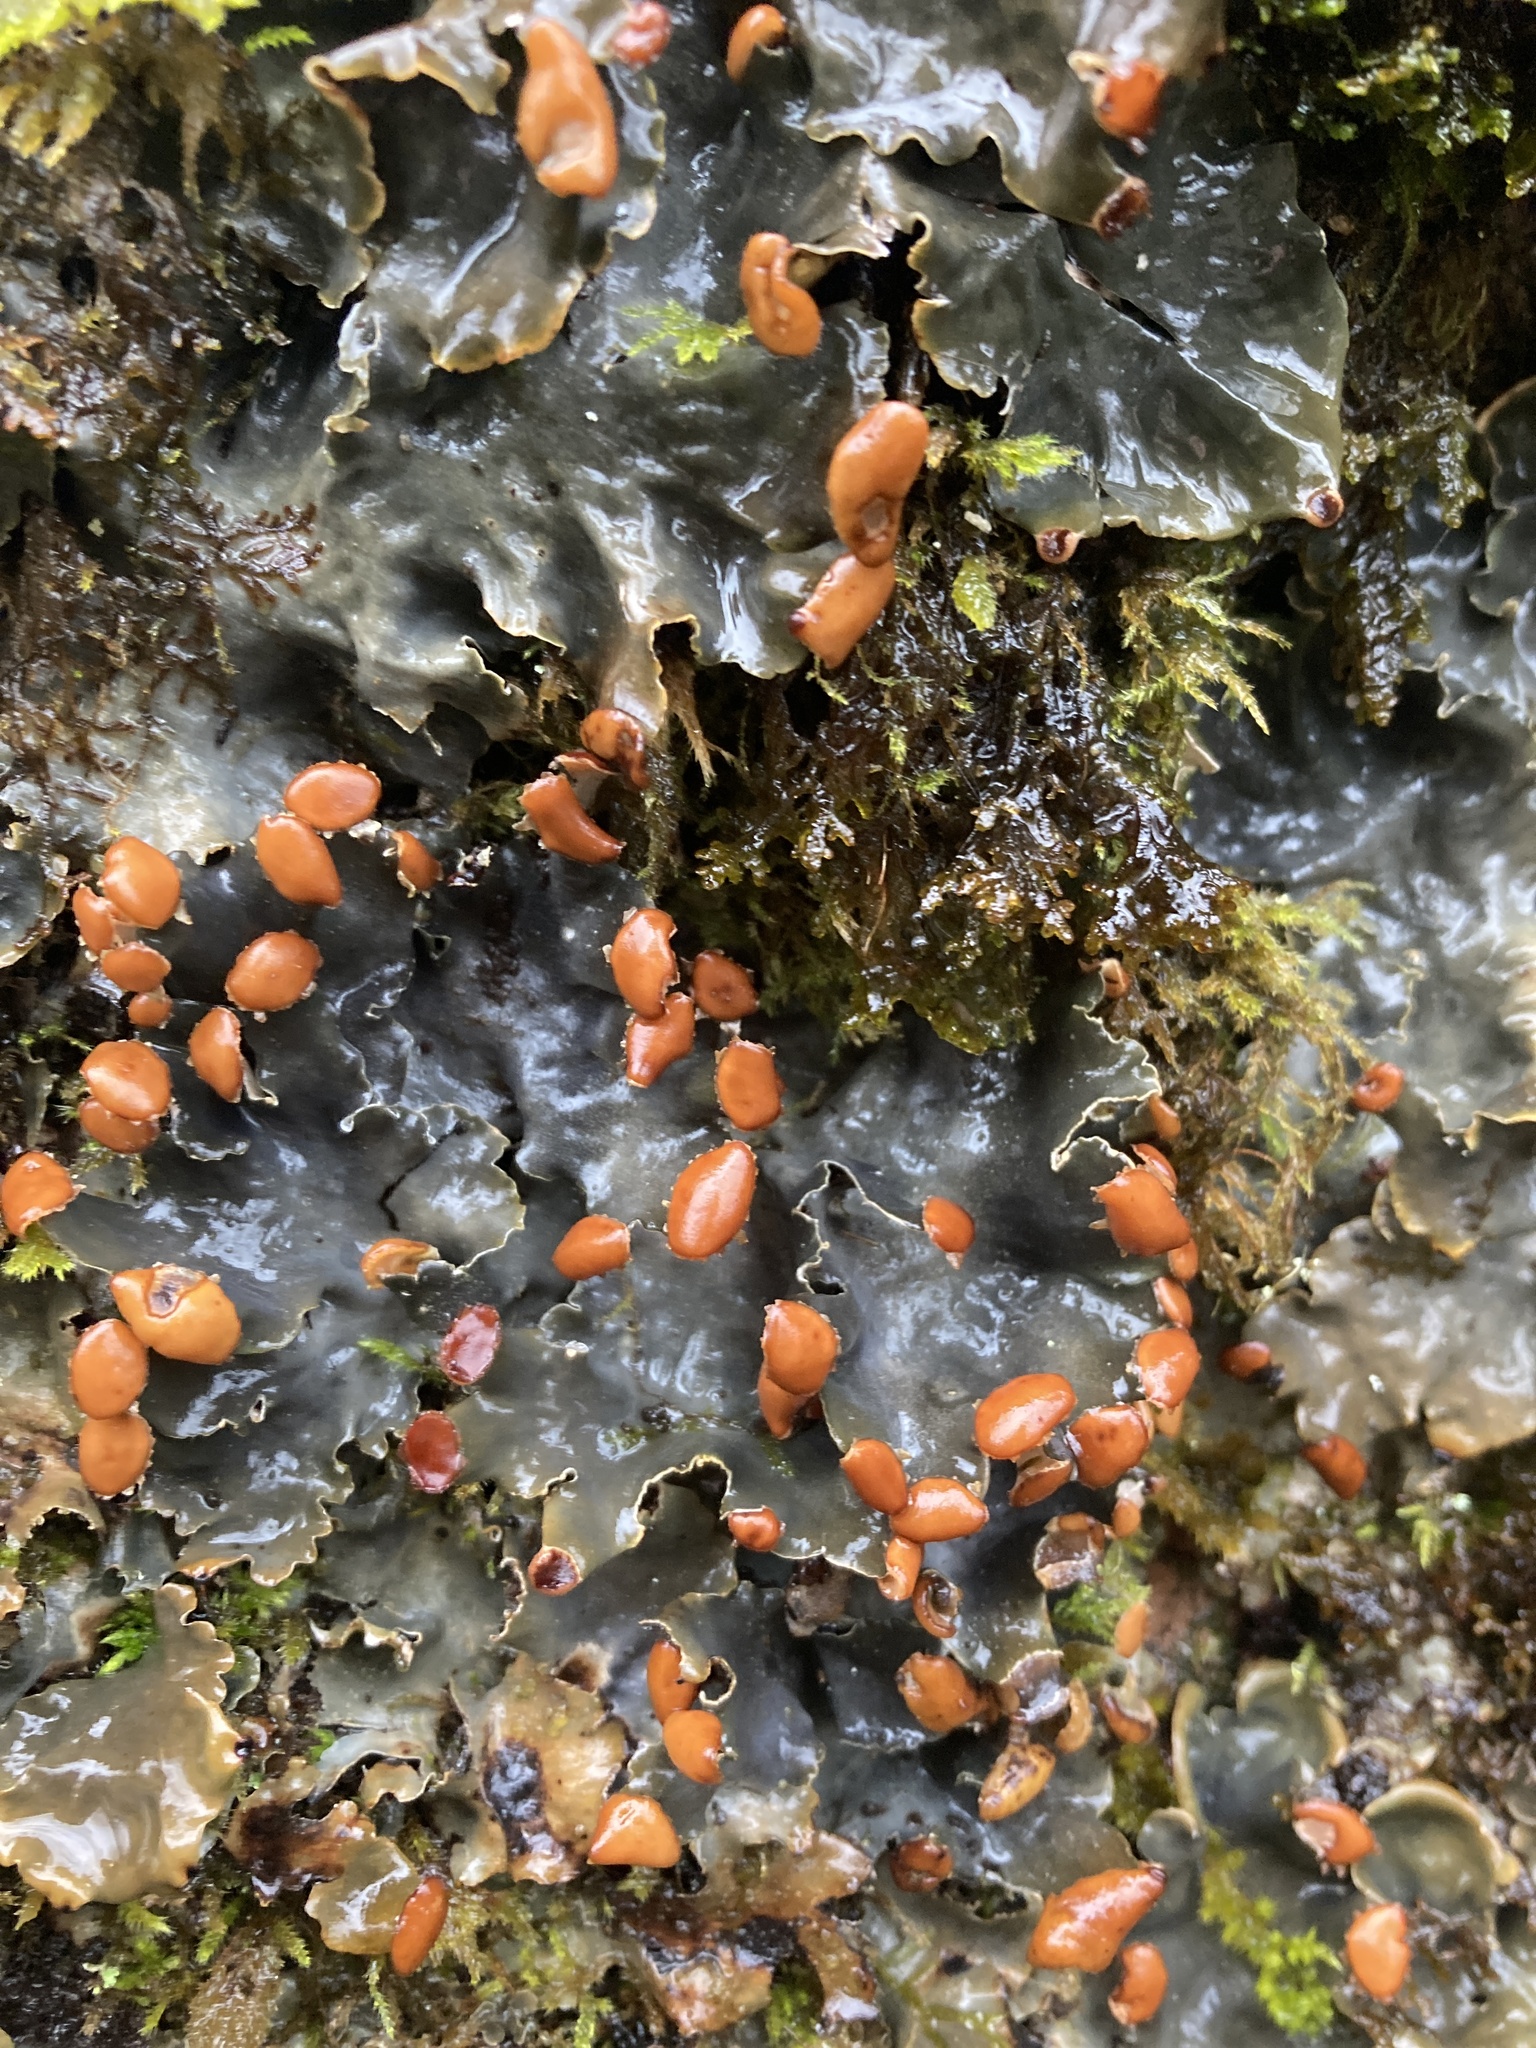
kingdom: Fungi
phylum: Ascomycota
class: Lecanoromycetes
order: Peltigerales
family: Peltigeraceae
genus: Peltigera
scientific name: Peltigera horizontalis
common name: Flat fruited pelt
